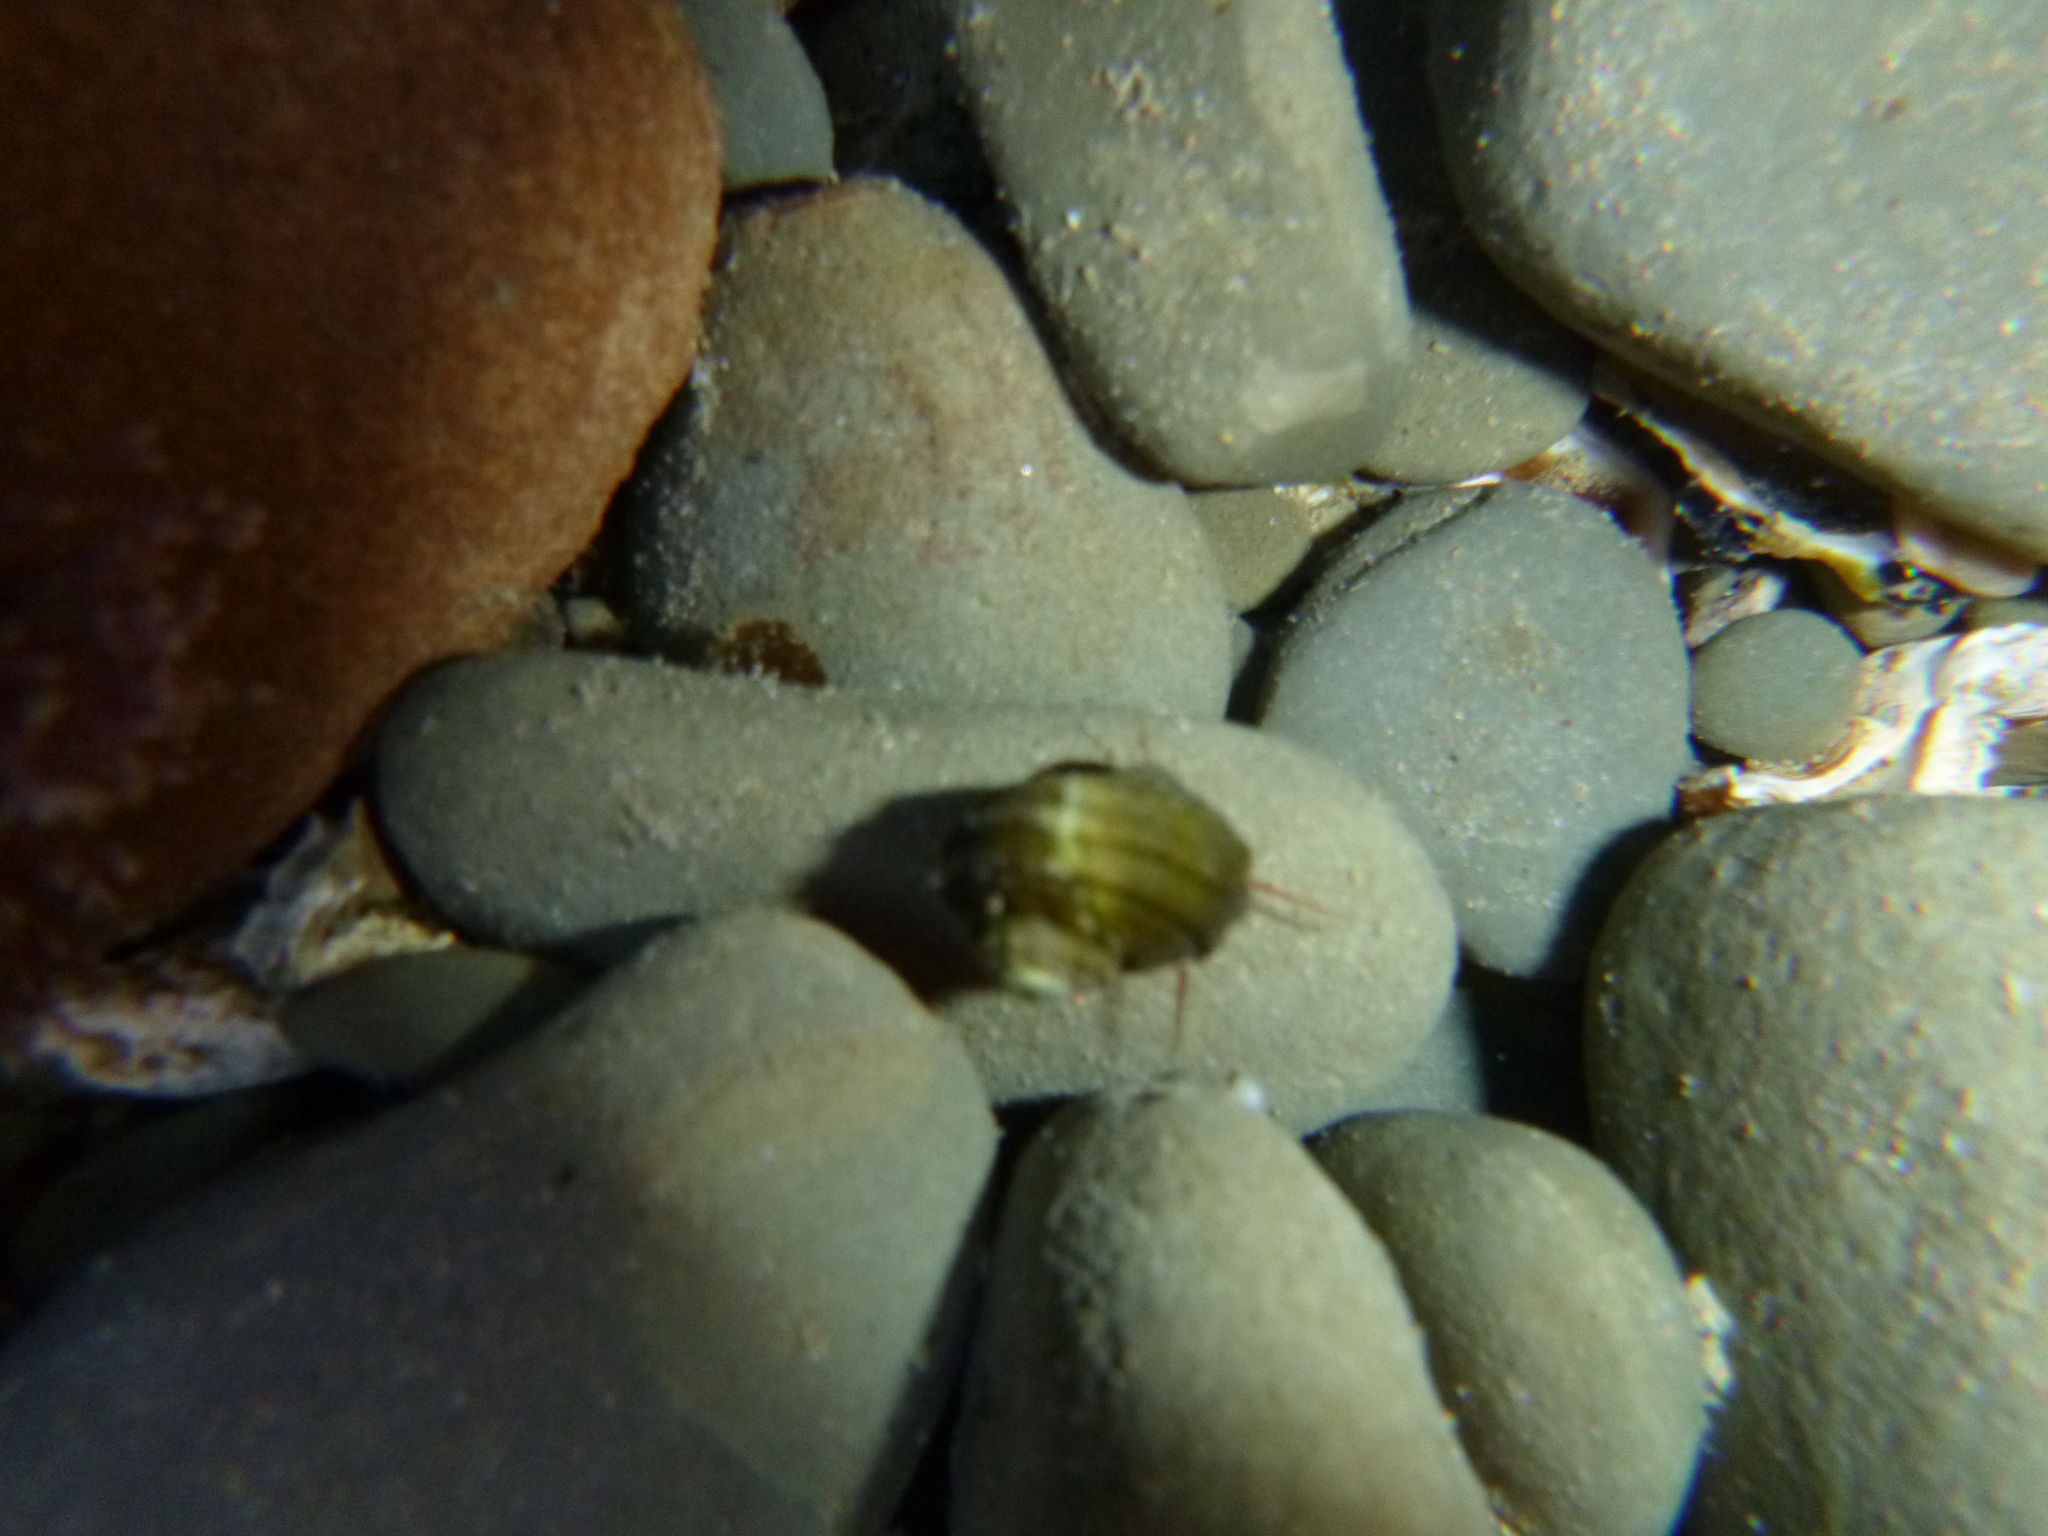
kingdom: Animalia
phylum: Mollusca
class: Gastropoda
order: Trochida
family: Turbinidae
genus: Lunella
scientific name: Lunella smaragda
